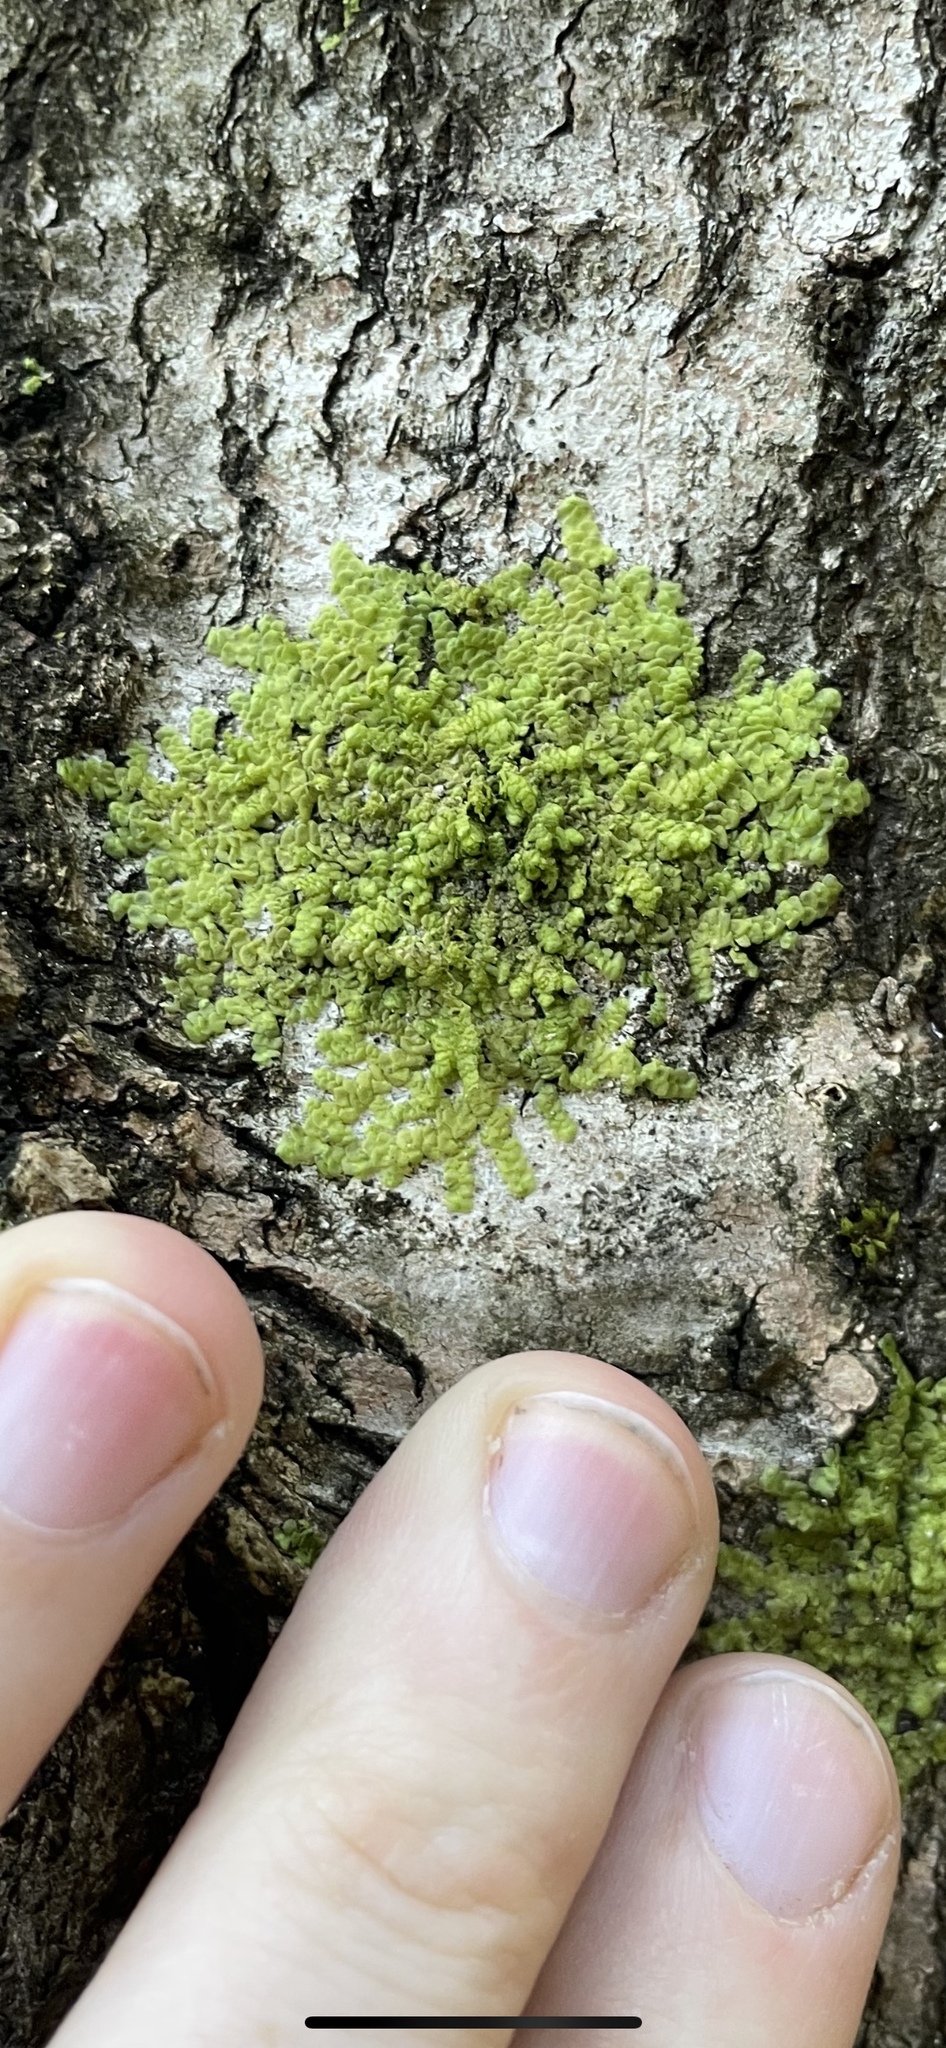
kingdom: Plantae
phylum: Marchantiophyta
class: Jungermanniopsida
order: Porellales
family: Radulaceae
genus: Radula
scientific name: Radula complanata
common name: Flat-leaved scalewort
